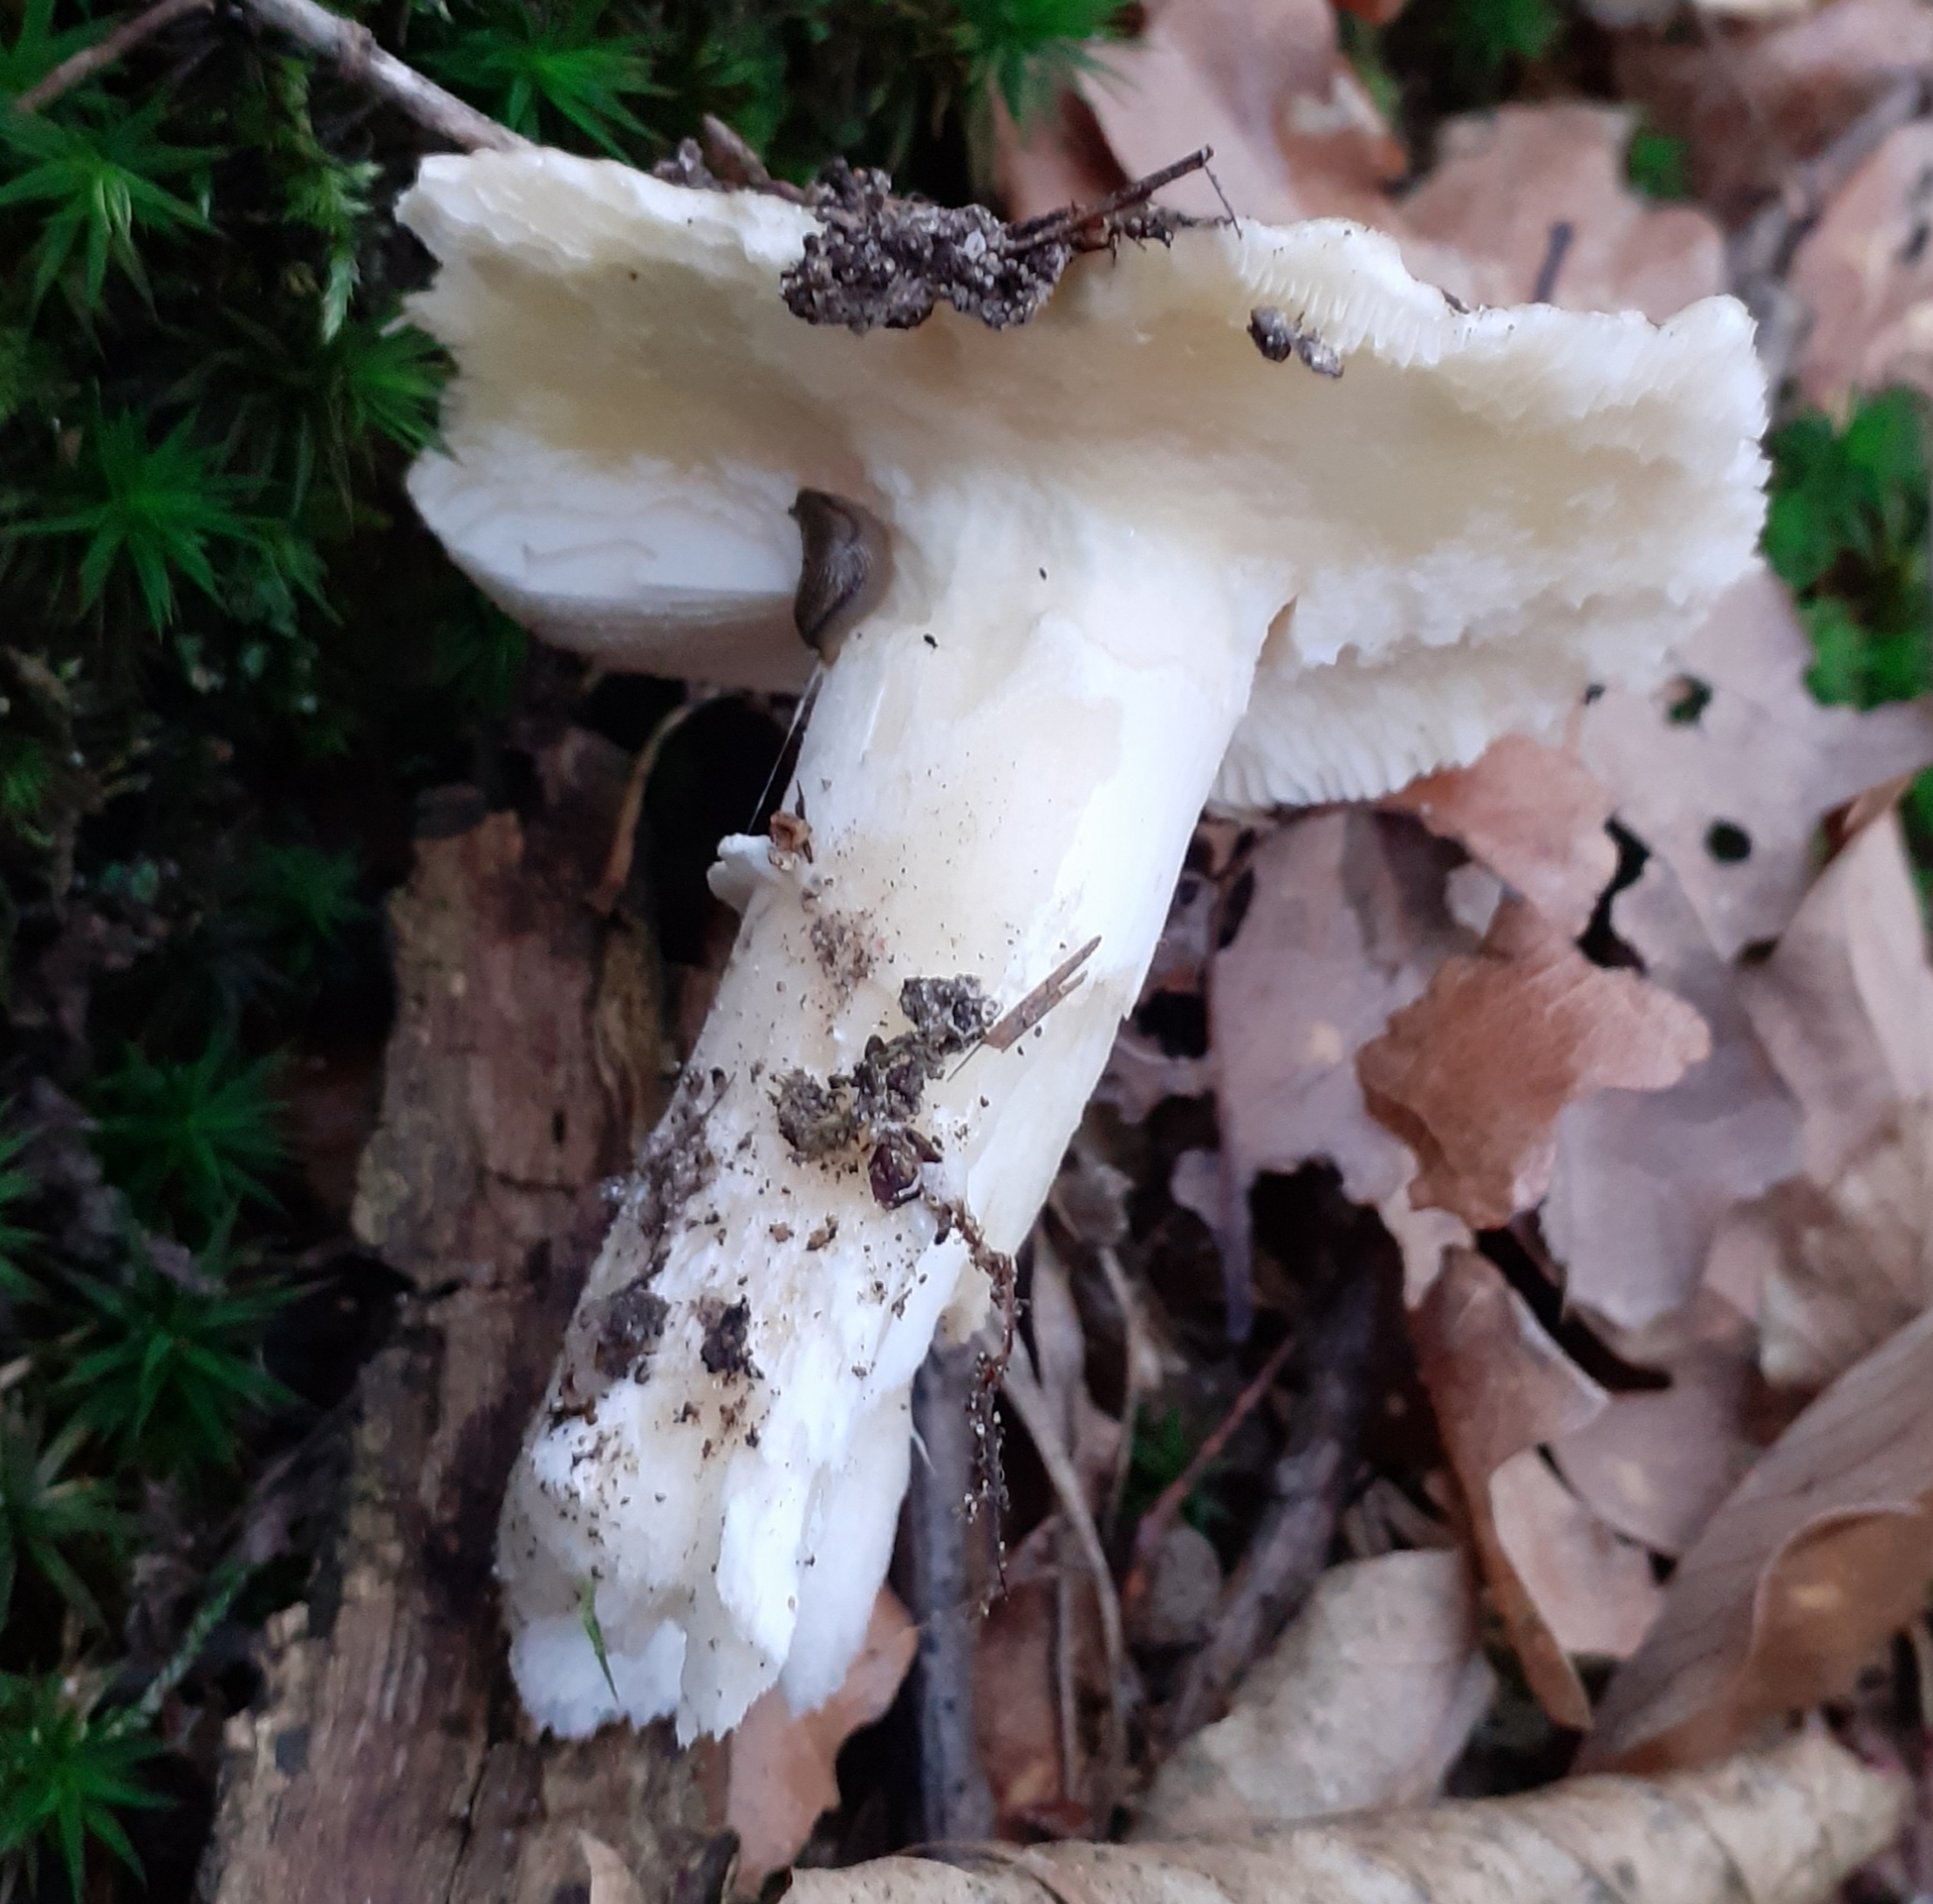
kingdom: Fungi
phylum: Basidiomycota
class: Agaricomycetes
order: Agaricales
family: Amanitaceae
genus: Amanita
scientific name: Amanita gemmata
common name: Jewelled amanita
